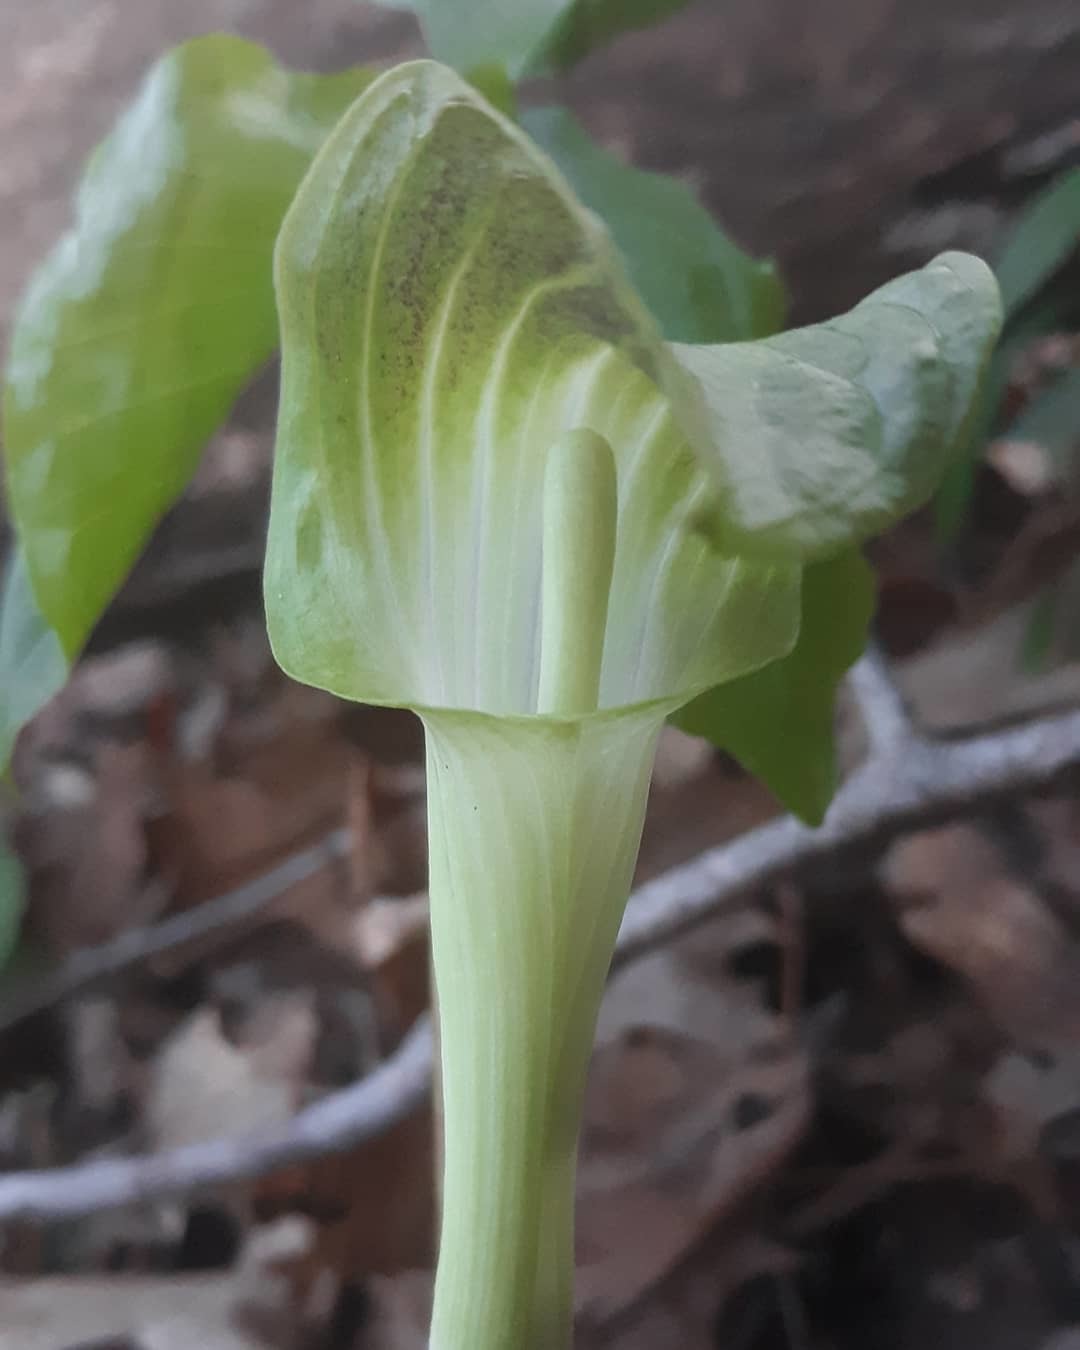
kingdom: Plantae
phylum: Tracheophyta
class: Liliopsida
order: Alismatales
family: Araceae
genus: Arisaema
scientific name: Arisaema triphyllum
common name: Jack-in-the-pulpit
